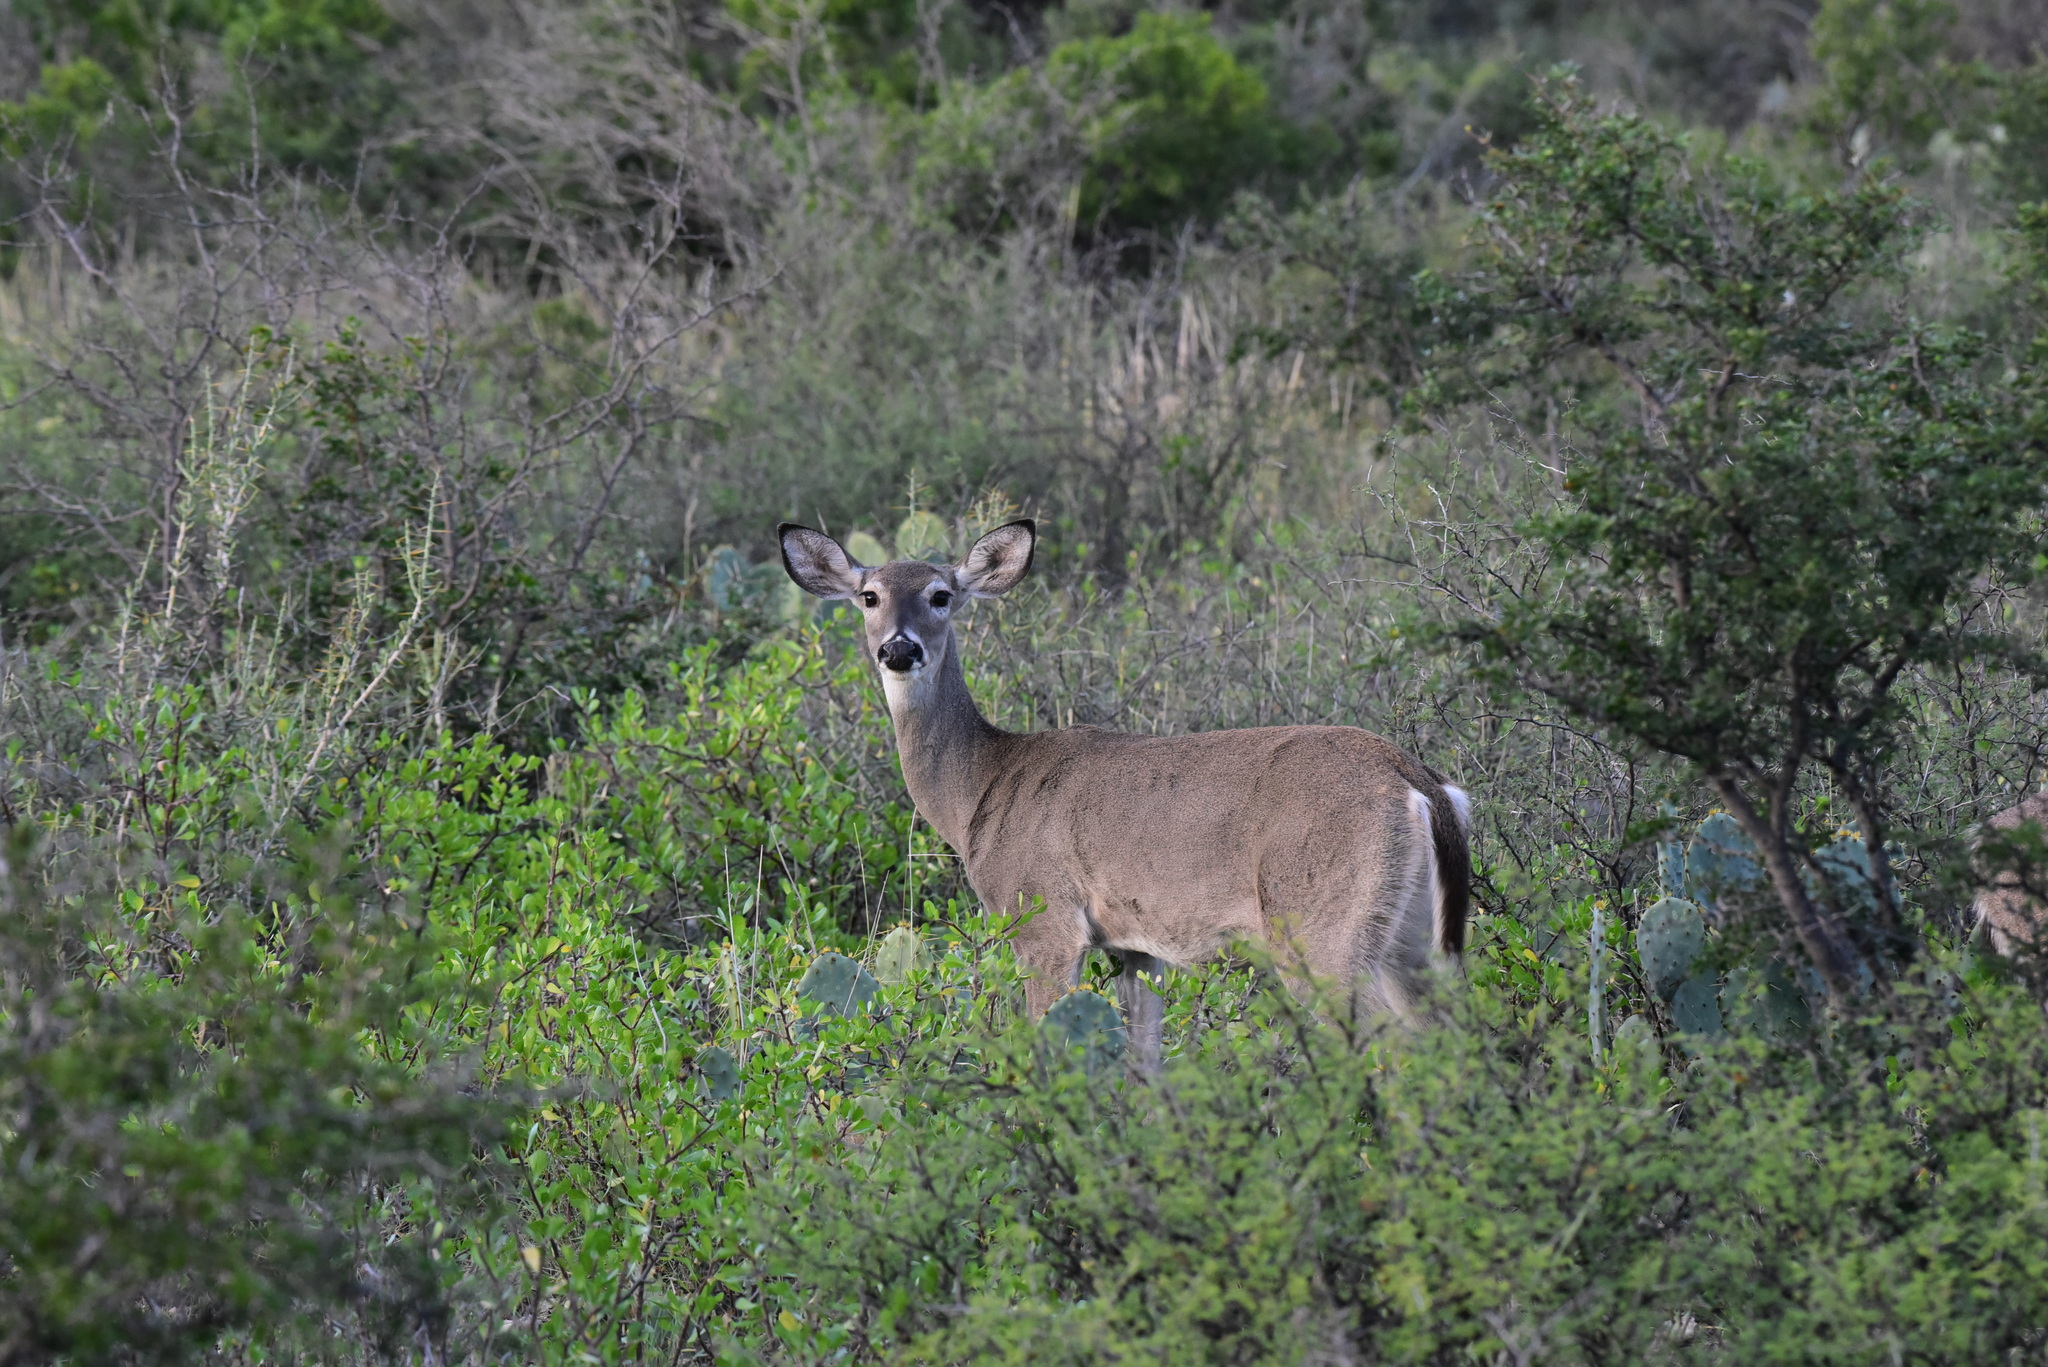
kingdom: Animalia
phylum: Chordata
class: Mammalia
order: Artiodactyla
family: Cervidae
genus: Odocoileus
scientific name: Odocoileus virginianus
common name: White-tailed deer
